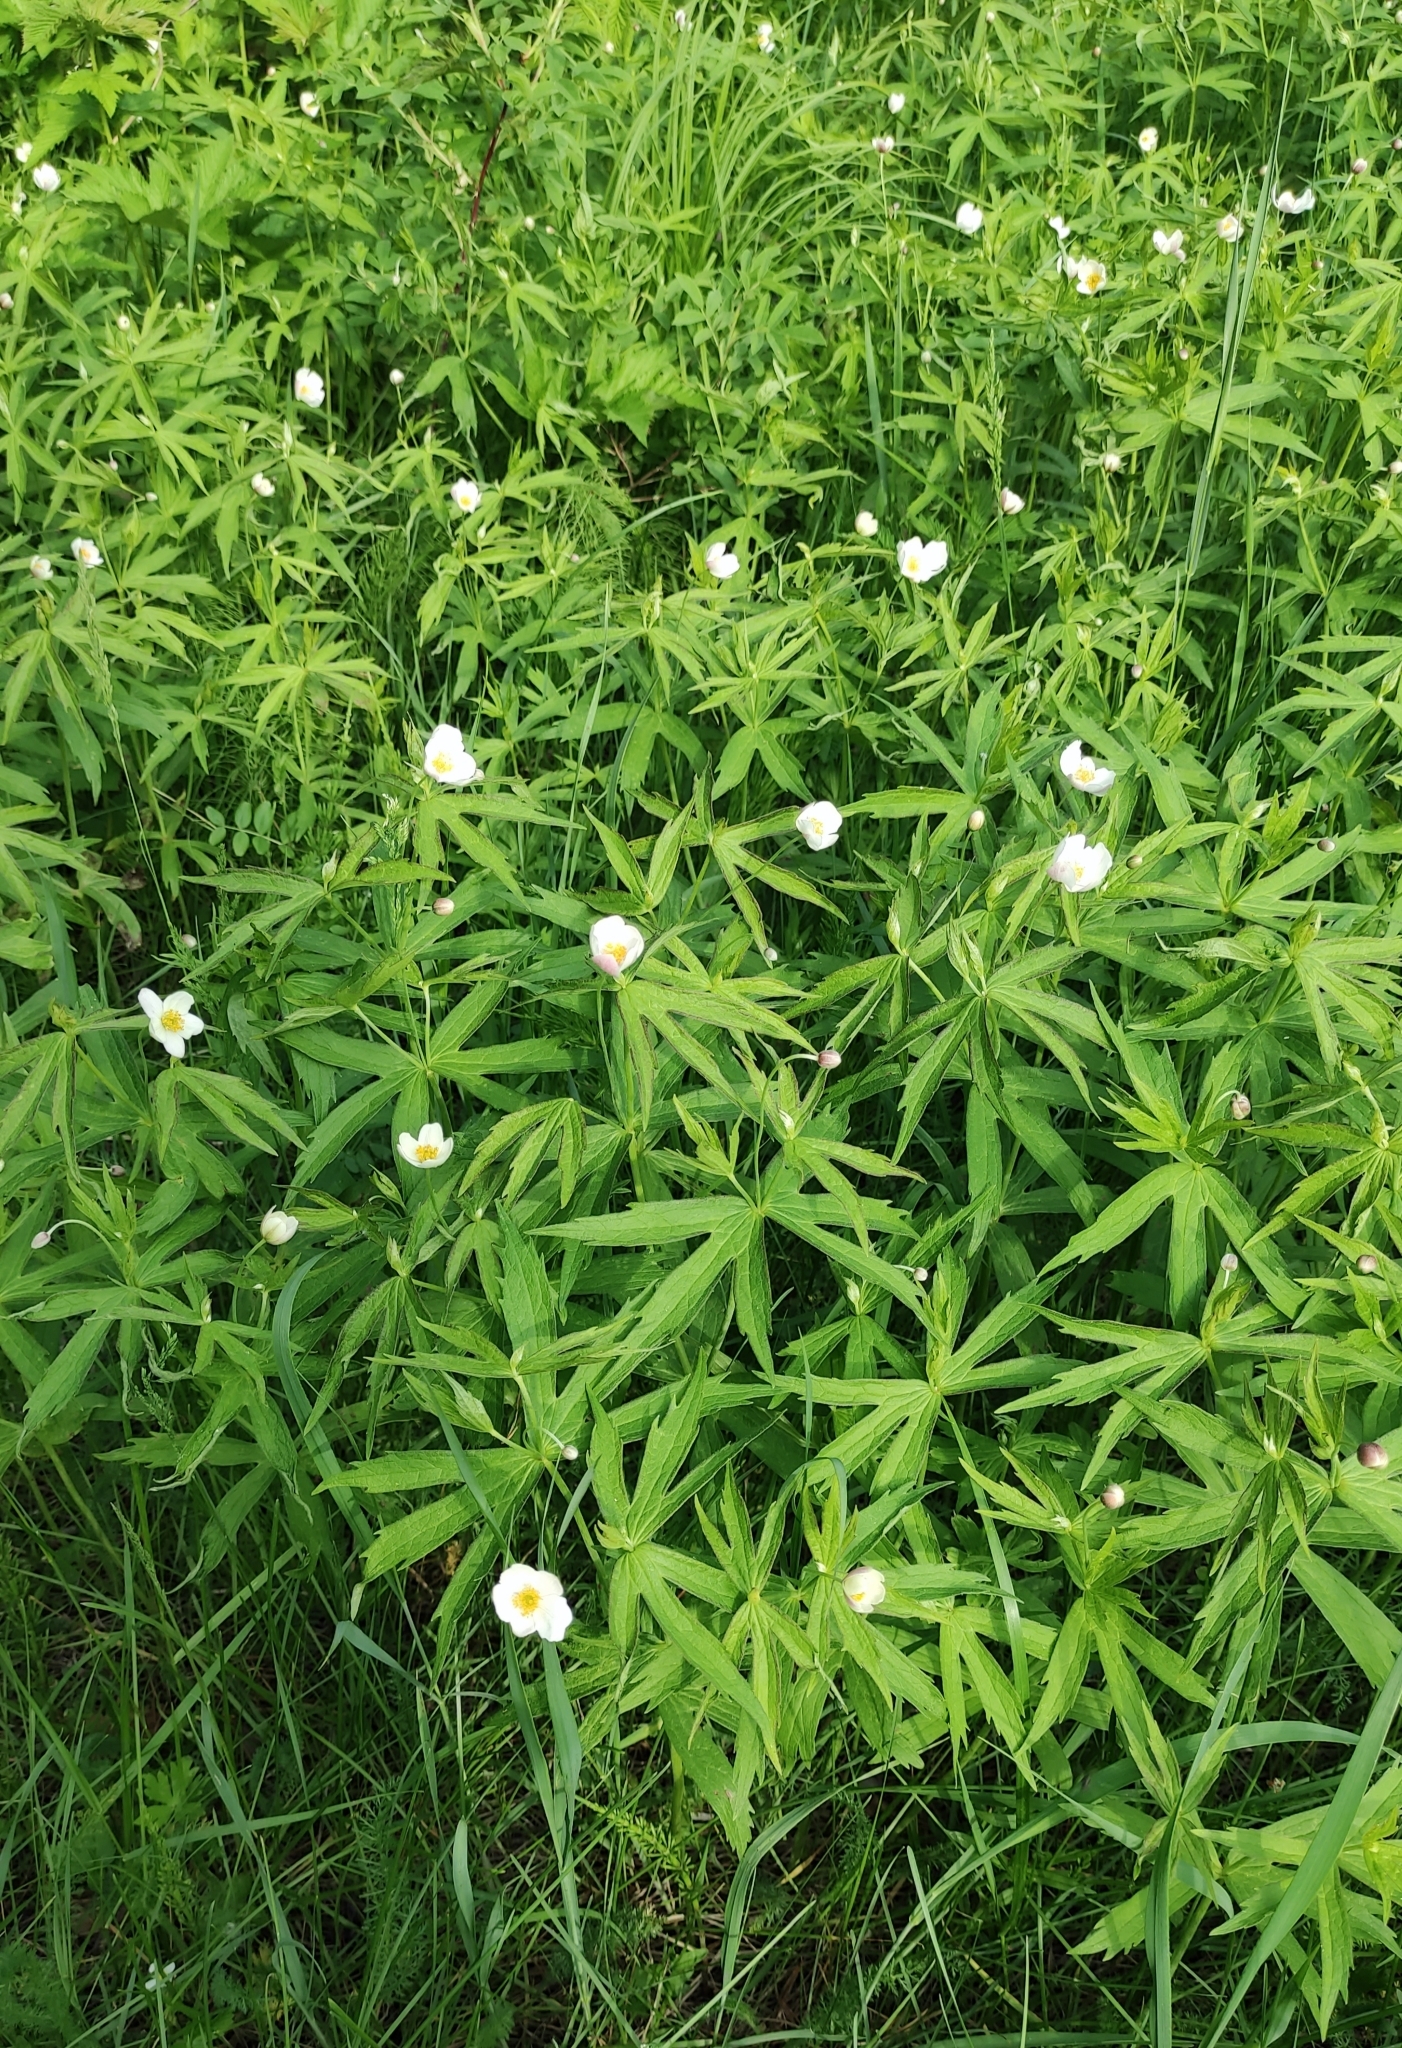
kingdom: Plantae
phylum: Tracheophyta
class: Magnoliopsida
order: Ranunculales
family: Ranunculaceae
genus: Anemonastrum
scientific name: Anemonastrum dichotomum
